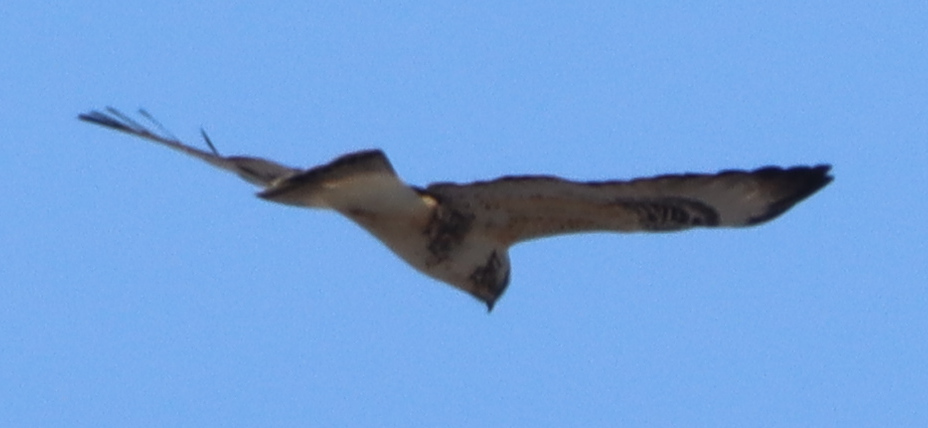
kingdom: Animalia
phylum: Chordata
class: Aves
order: Accipitriformes
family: Accipitridae
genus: Buteo
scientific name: Buteo lagopus
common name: Rough-legged buzzard
